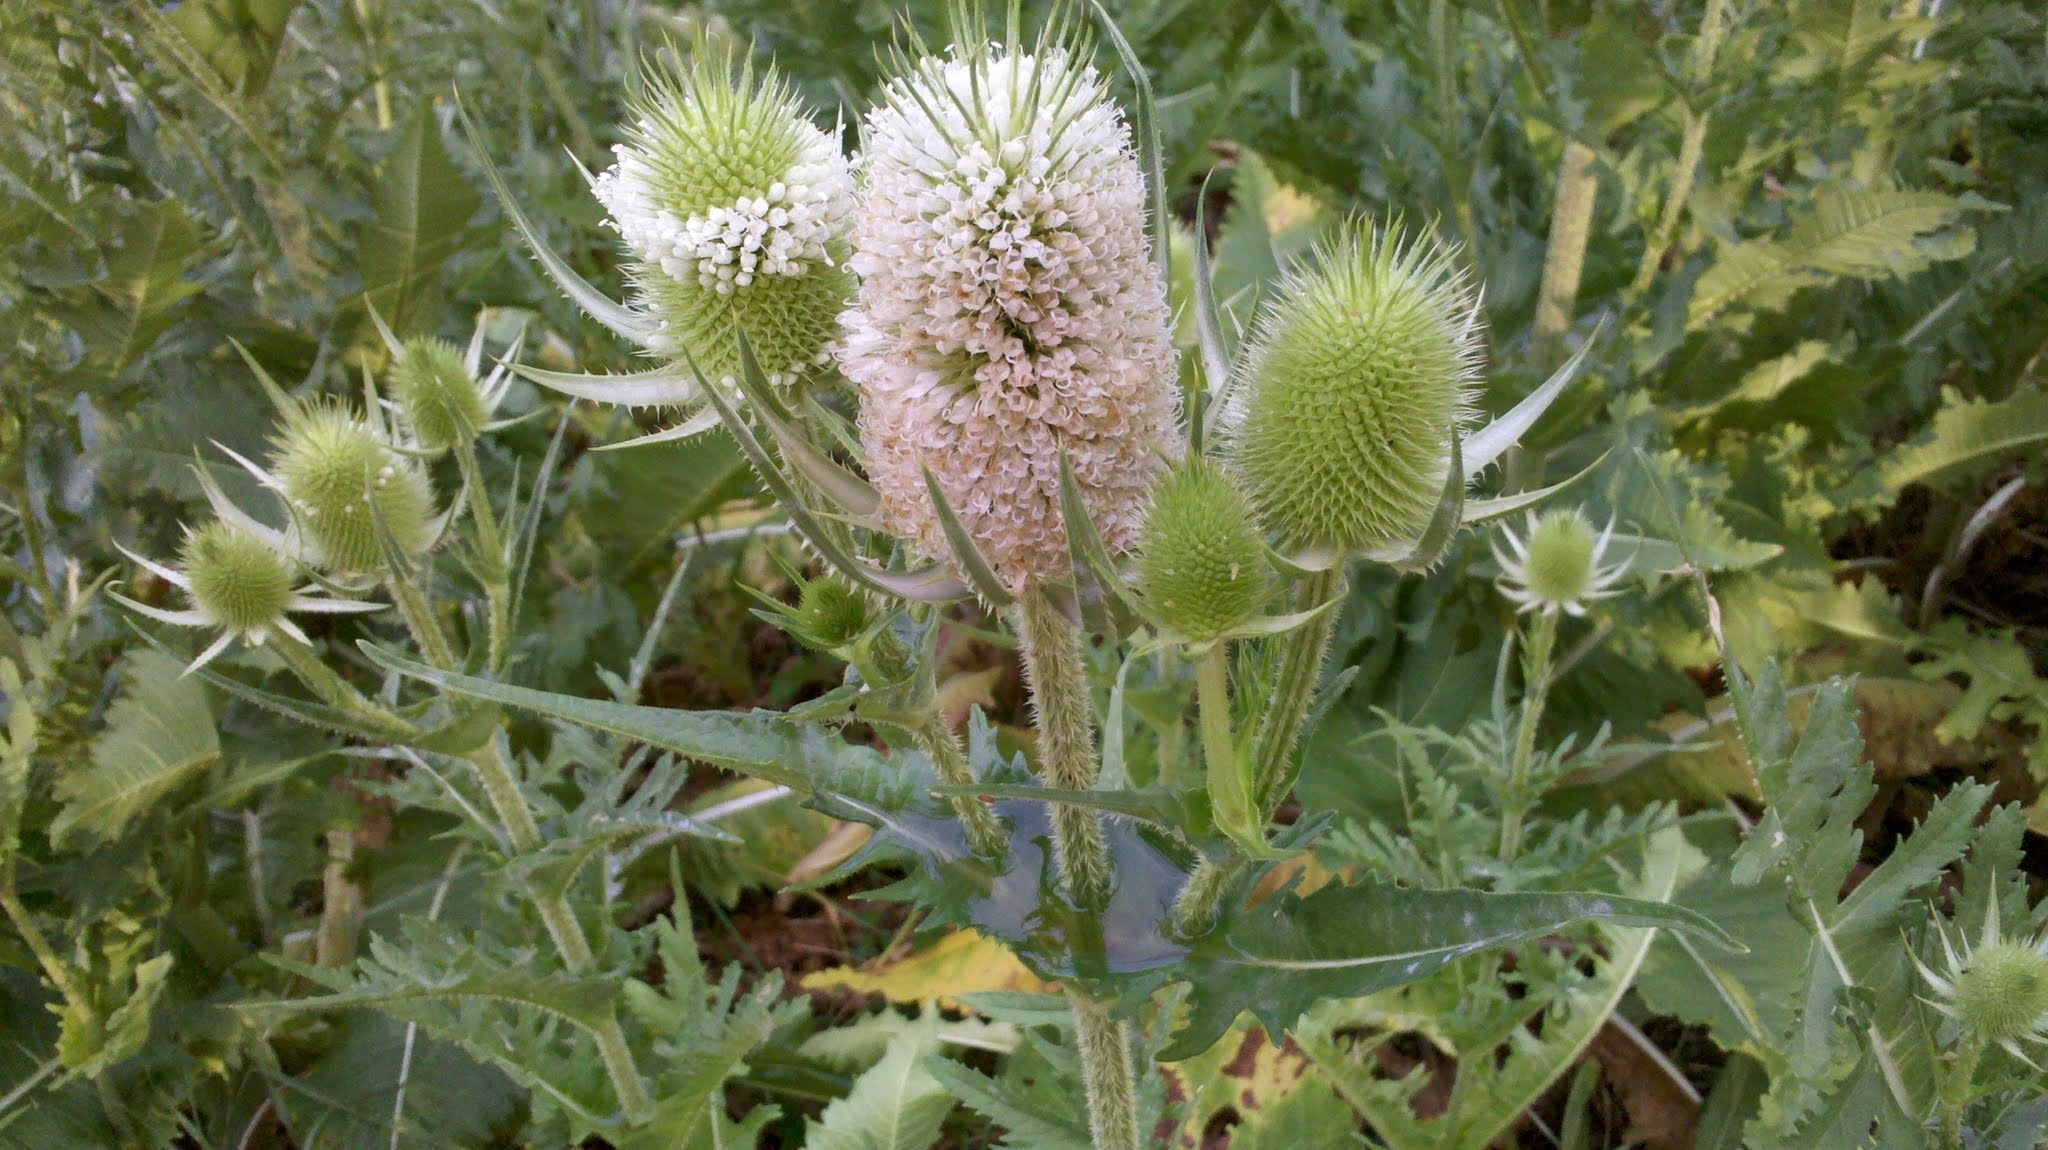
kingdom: Plantae
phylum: Tracheophyta
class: Magnoliopsida
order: Dipsacales
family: Caprifoliaceae
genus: Dipsacus
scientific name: Dipsacus laciniatus
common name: Cut-leaved teasel
